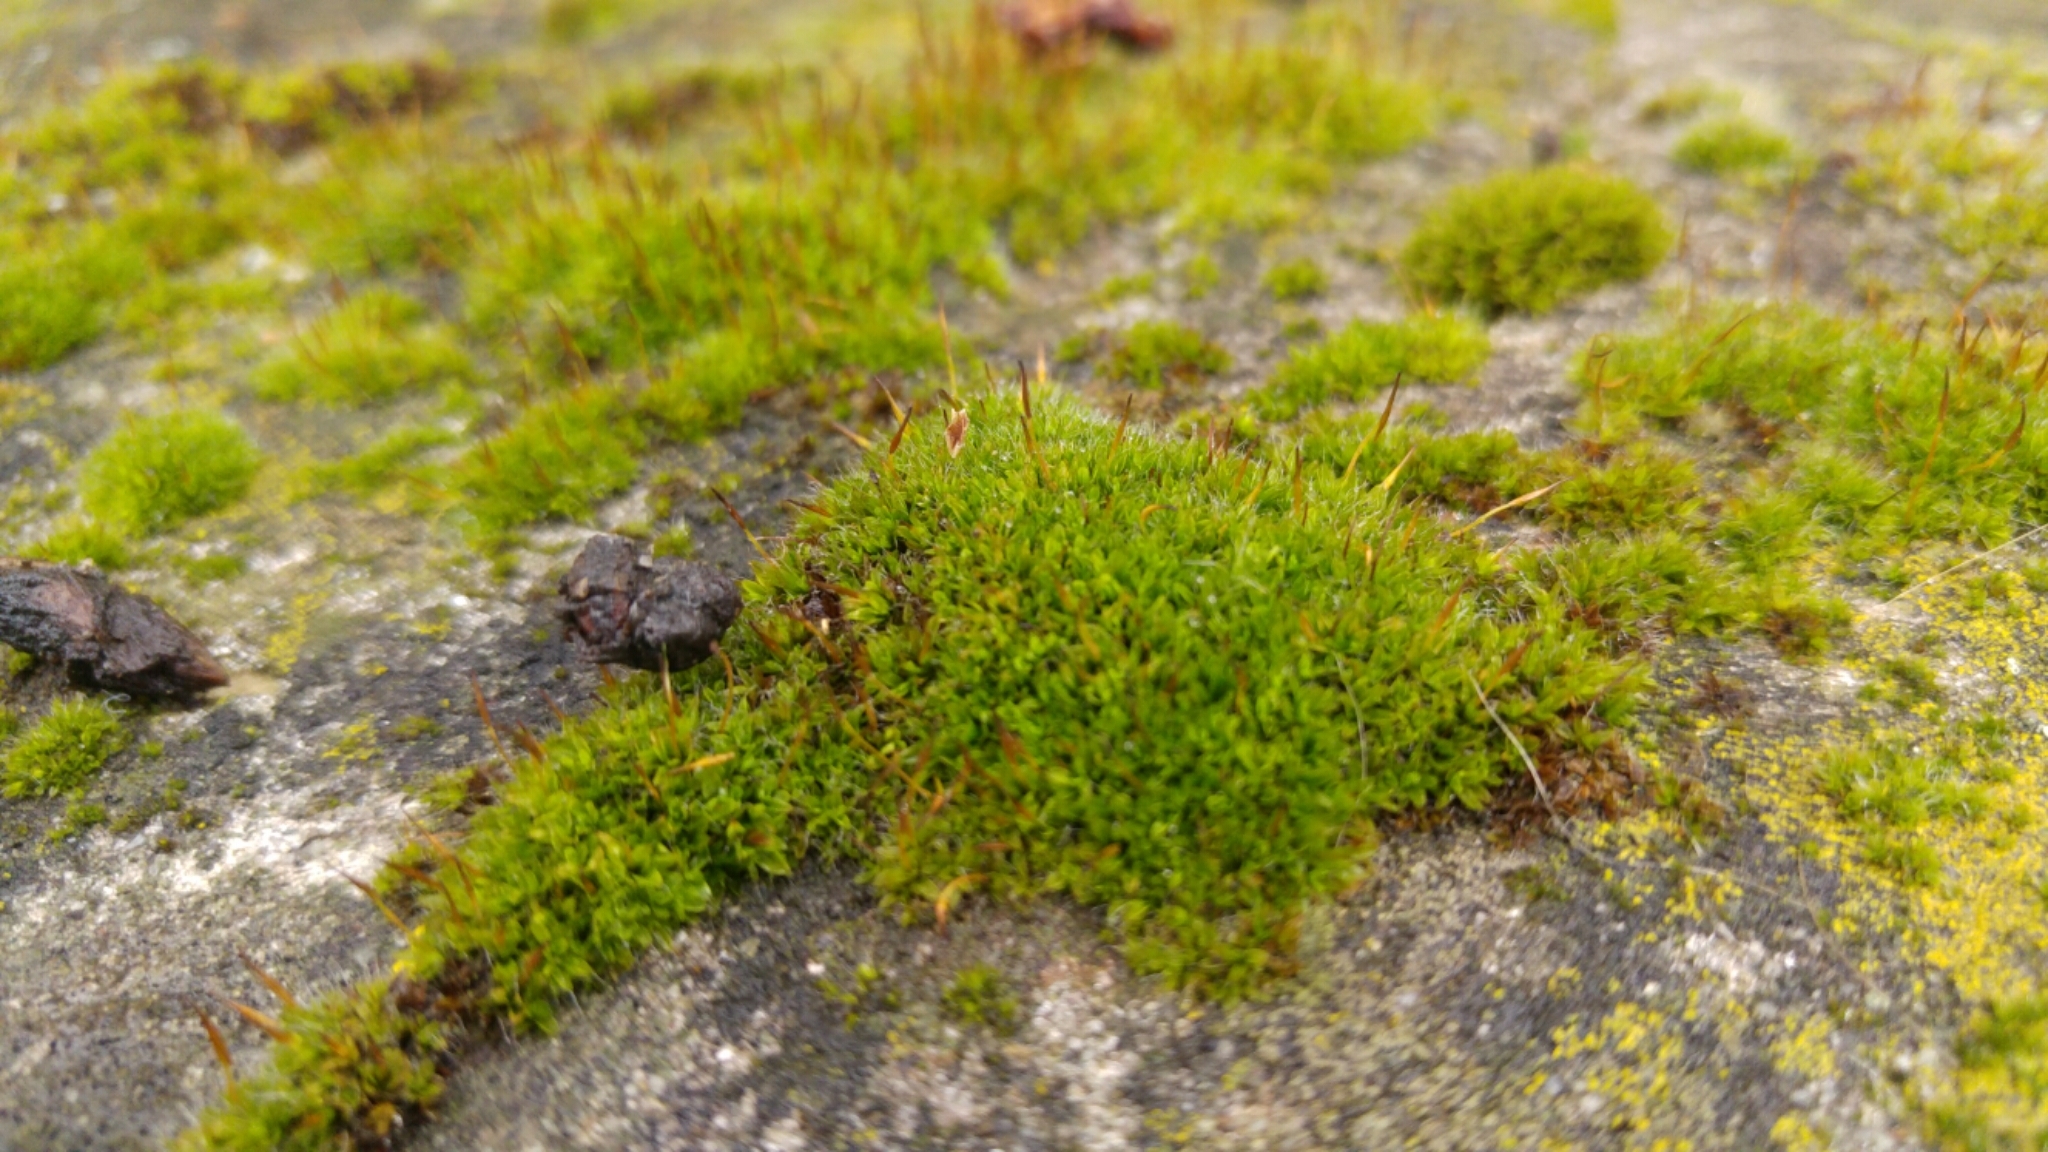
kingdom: Plantae
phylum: Bryophyta
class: Bryopsida
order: Pottiales
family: Pottiaceae
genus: Tortula
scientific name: Tortula muralis
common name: Wall screw-moss
